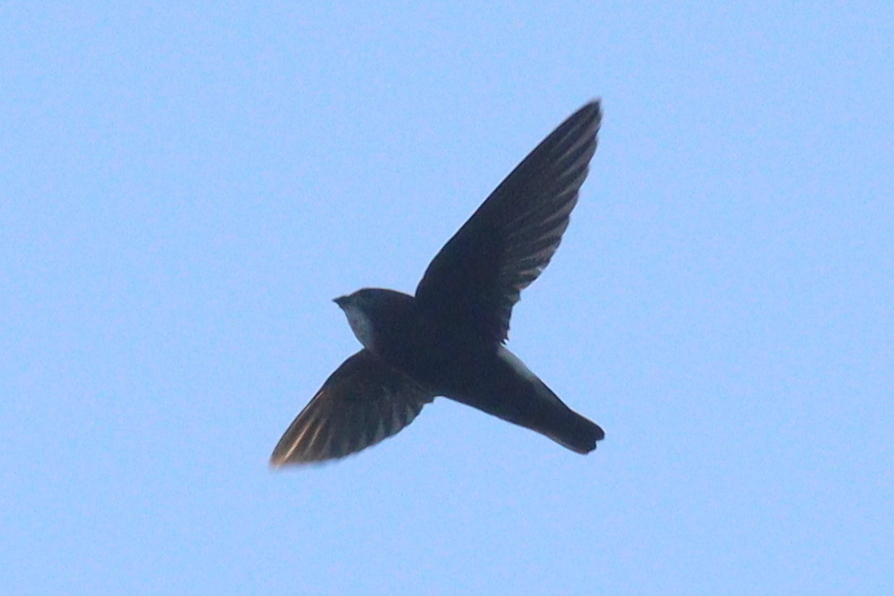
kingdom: Animalia
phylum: Chordata
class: Aves
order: Apodiformes
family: Apodidae
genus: Apus
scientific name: Apus affinis
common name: Little swift
